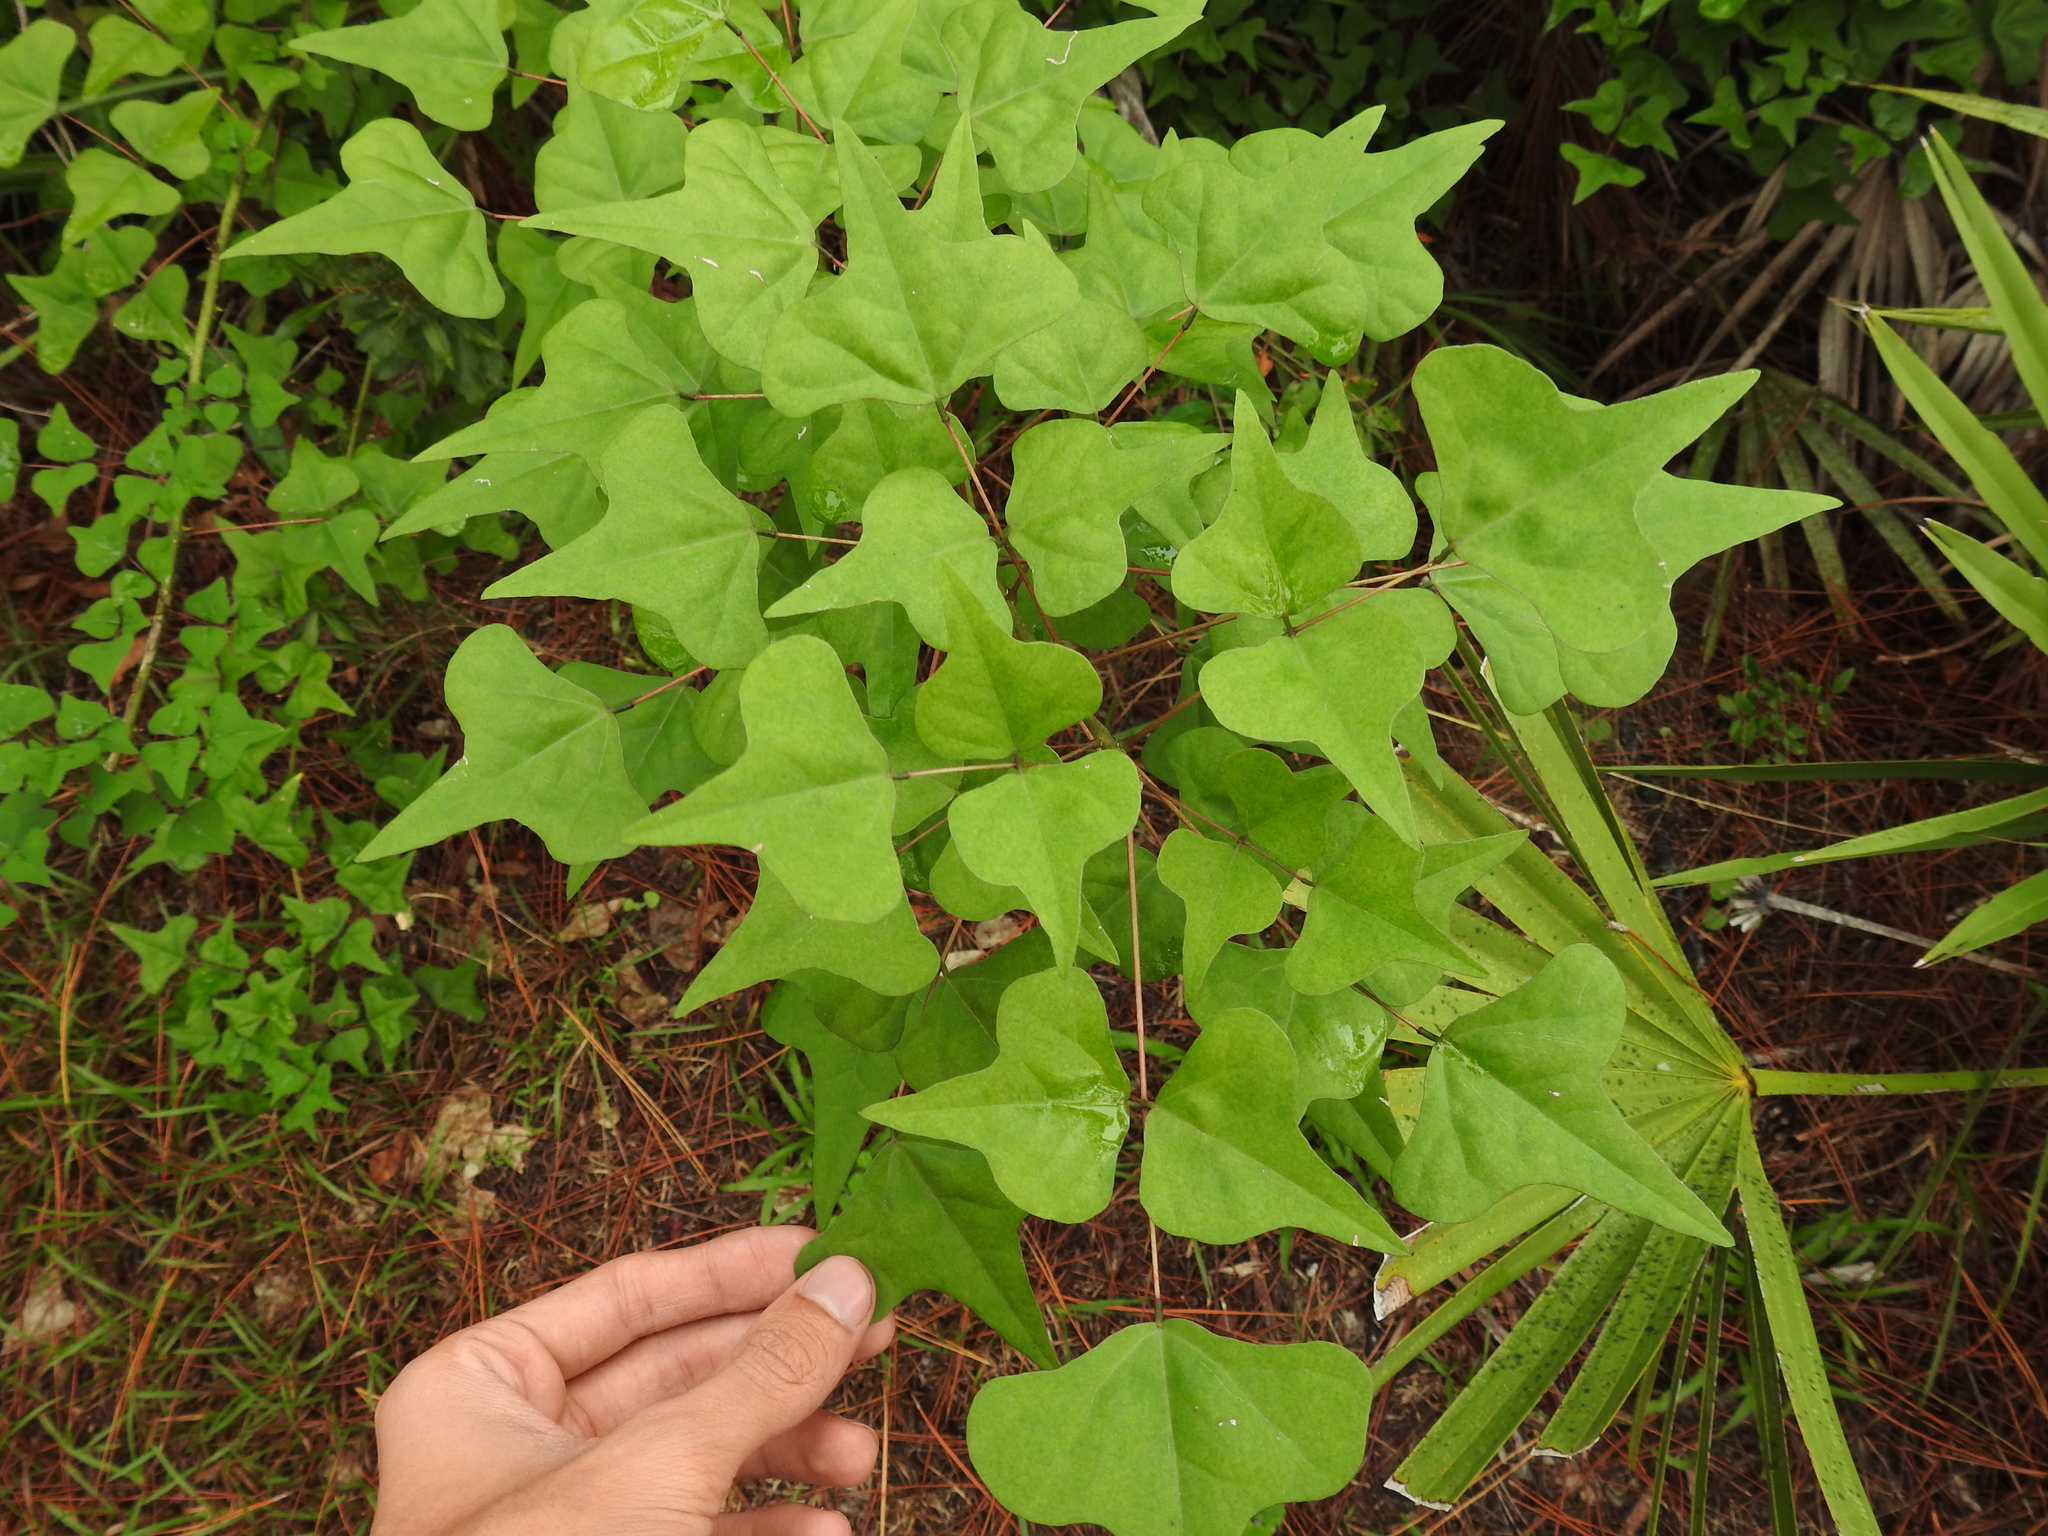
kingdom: Plantae
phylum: Tracheophyta
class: Magnoliopsida
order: Fabales
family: Fabaceae
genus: Erythrina
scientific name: Erythrina herbacea
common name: Coral-bean
